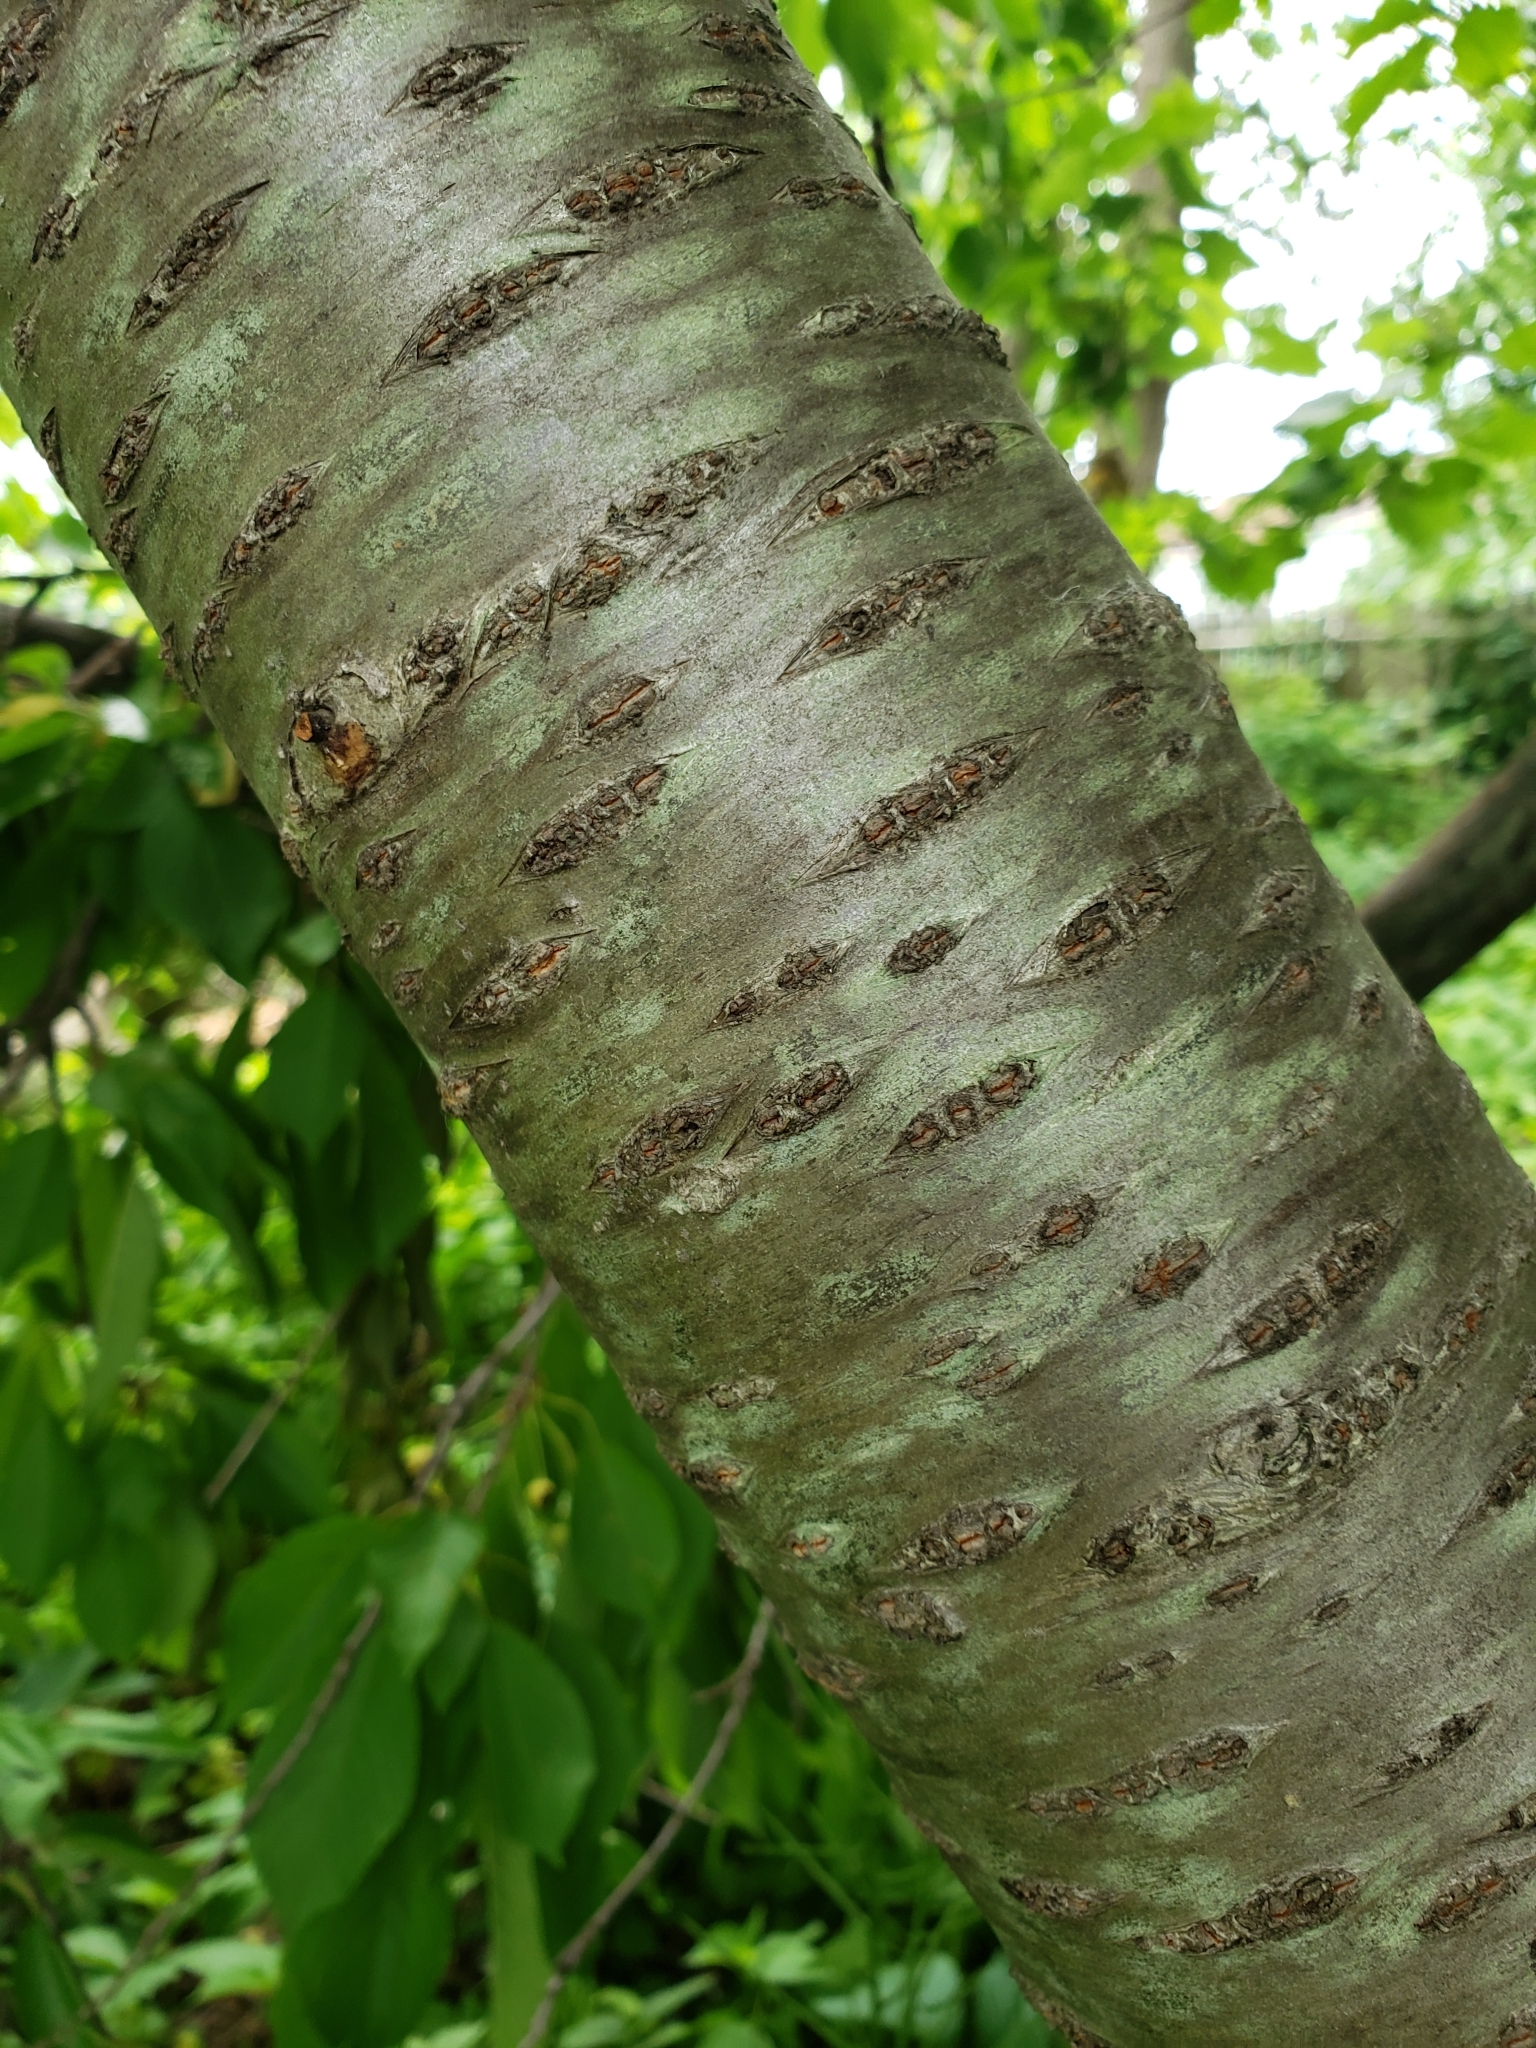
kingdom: Plantae
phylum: Tracheophyta
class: Magnoliopsida
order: Rosales
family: Rosaceae
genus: Prunus
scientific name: Prunus avium
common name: Sweet cherry
